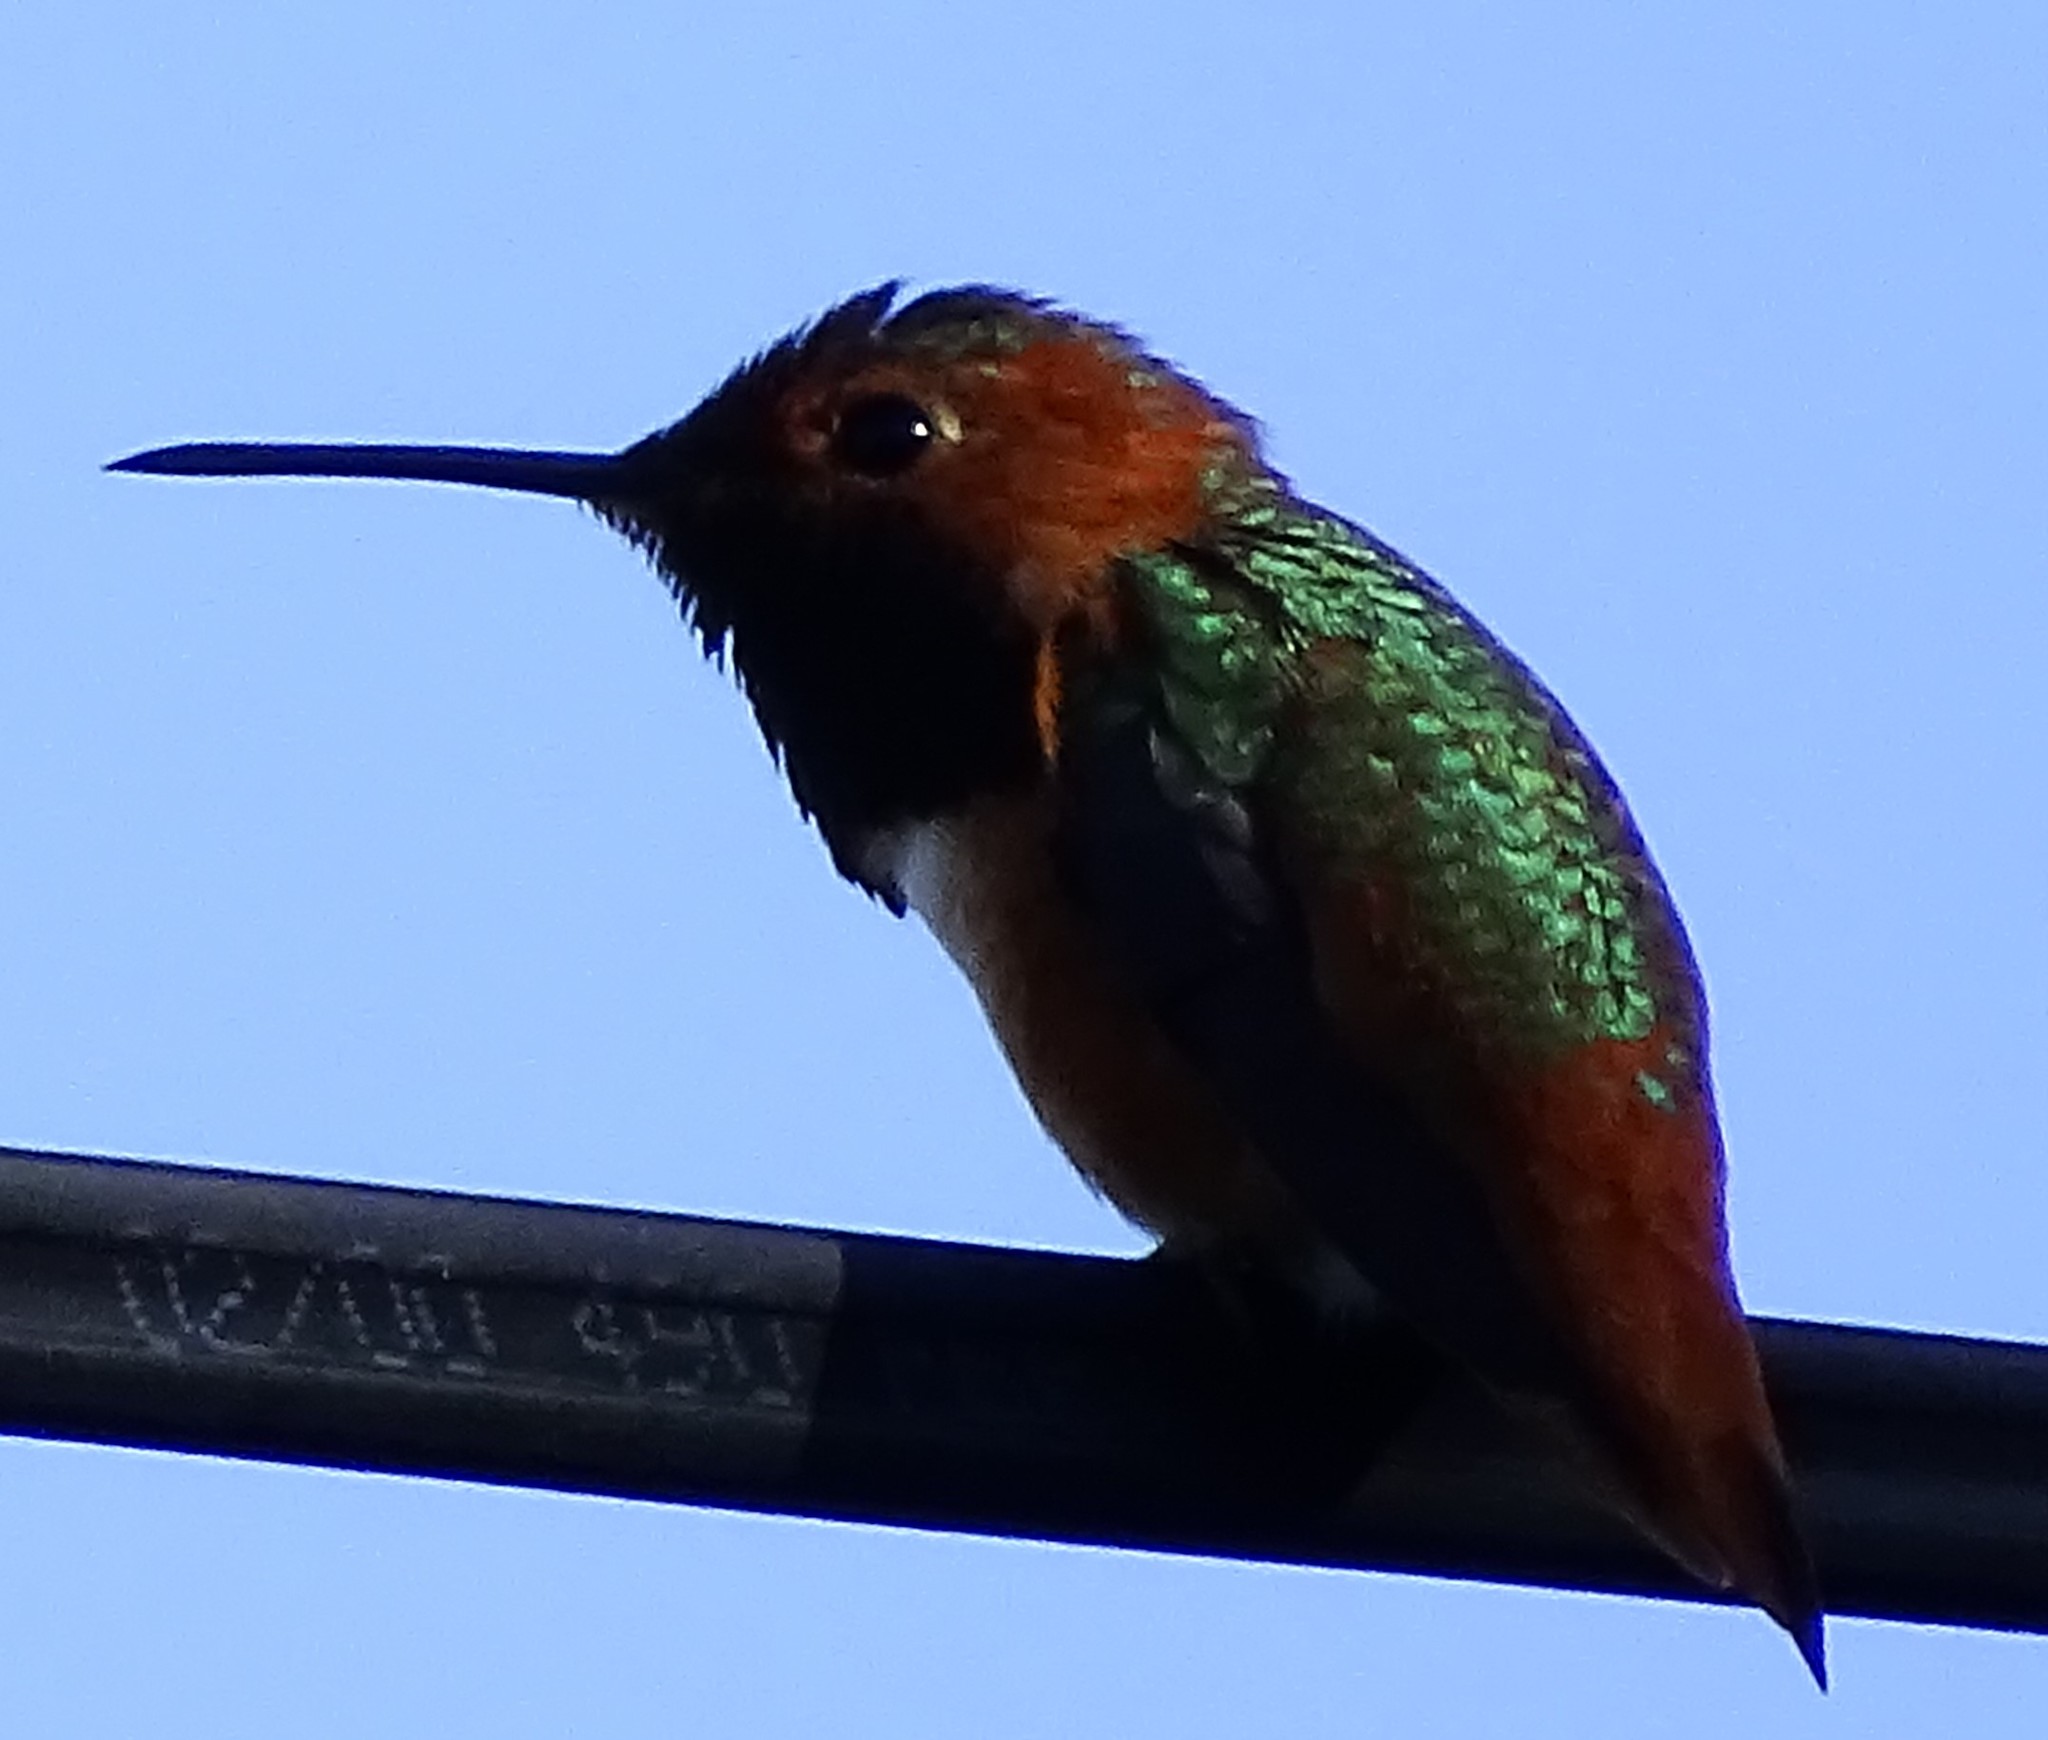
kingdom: Animalia
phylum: Chordata
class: Aves
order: Apodiformes
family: Trochilidae
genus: Selasphorus
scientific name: Selasphorus sasin
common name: Allen's hummingbird
